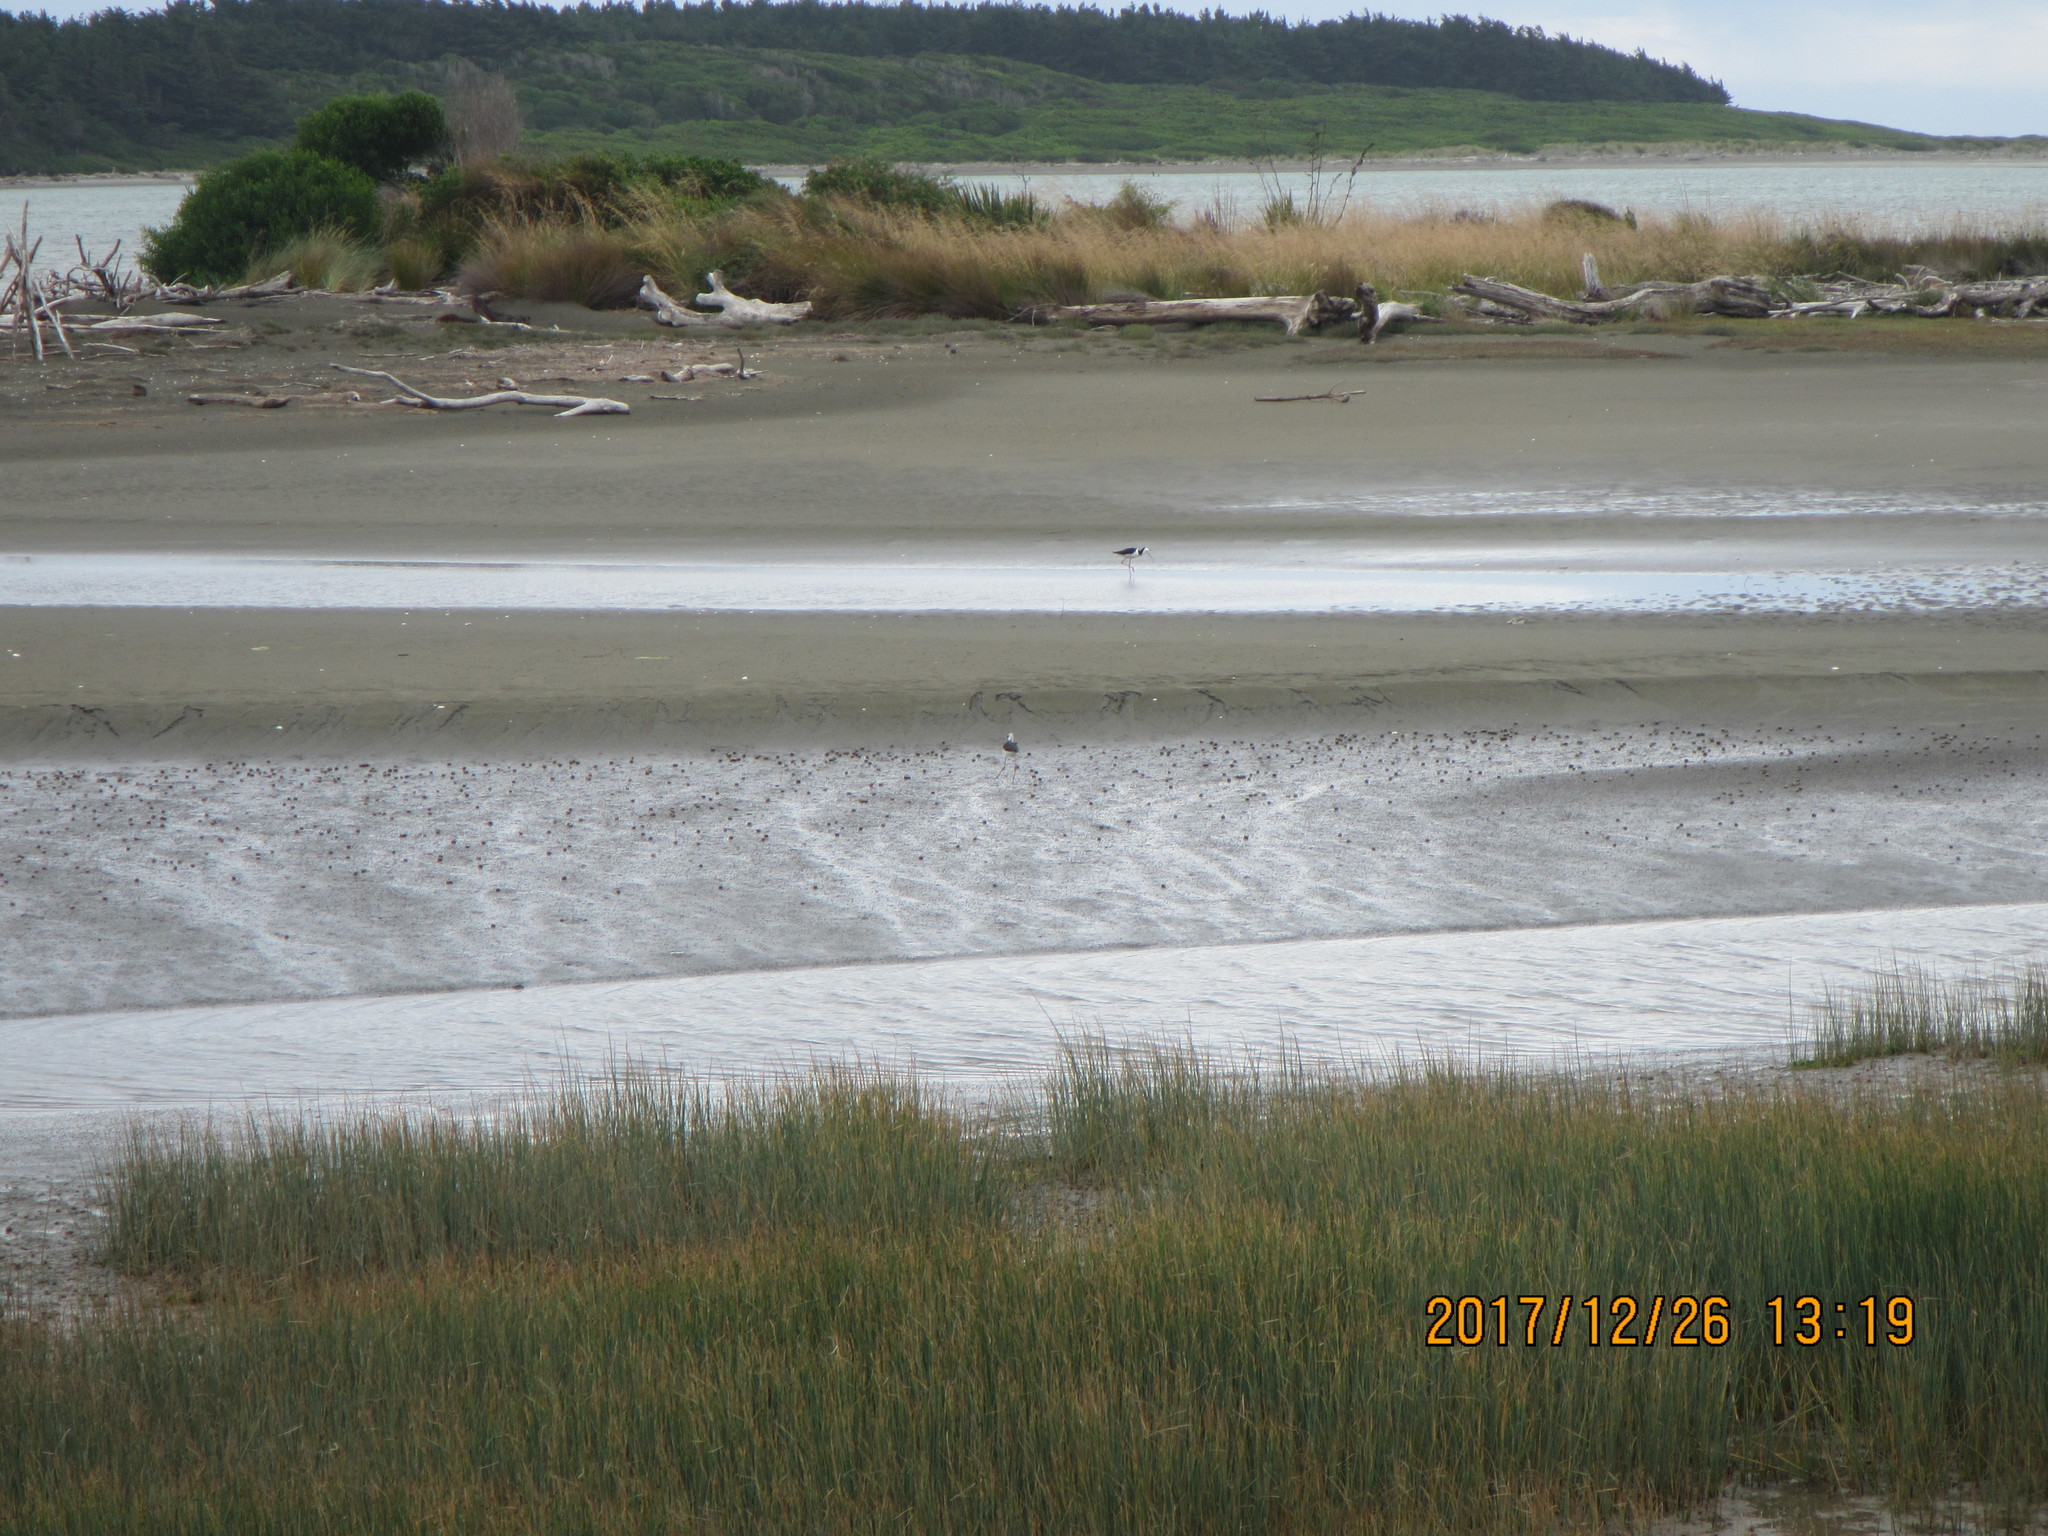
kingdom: Animalia
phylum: Chordata
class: Aves
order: Charadriiformes
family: Recurvirostridae
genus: Himantopus
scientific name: Himantopus leucocephalus
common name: White-headed stilt
